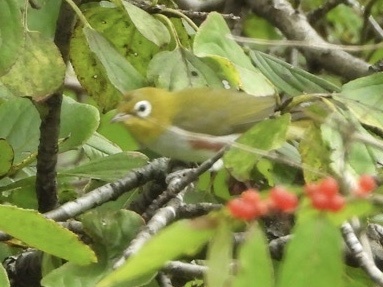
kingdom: Animalia
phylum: Chordata
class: Aves
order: Passeriformes
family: Zosteropidae
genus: Zosterops
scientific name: Zosterops erythropleurus
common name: Chestnut-flanked white-eye
